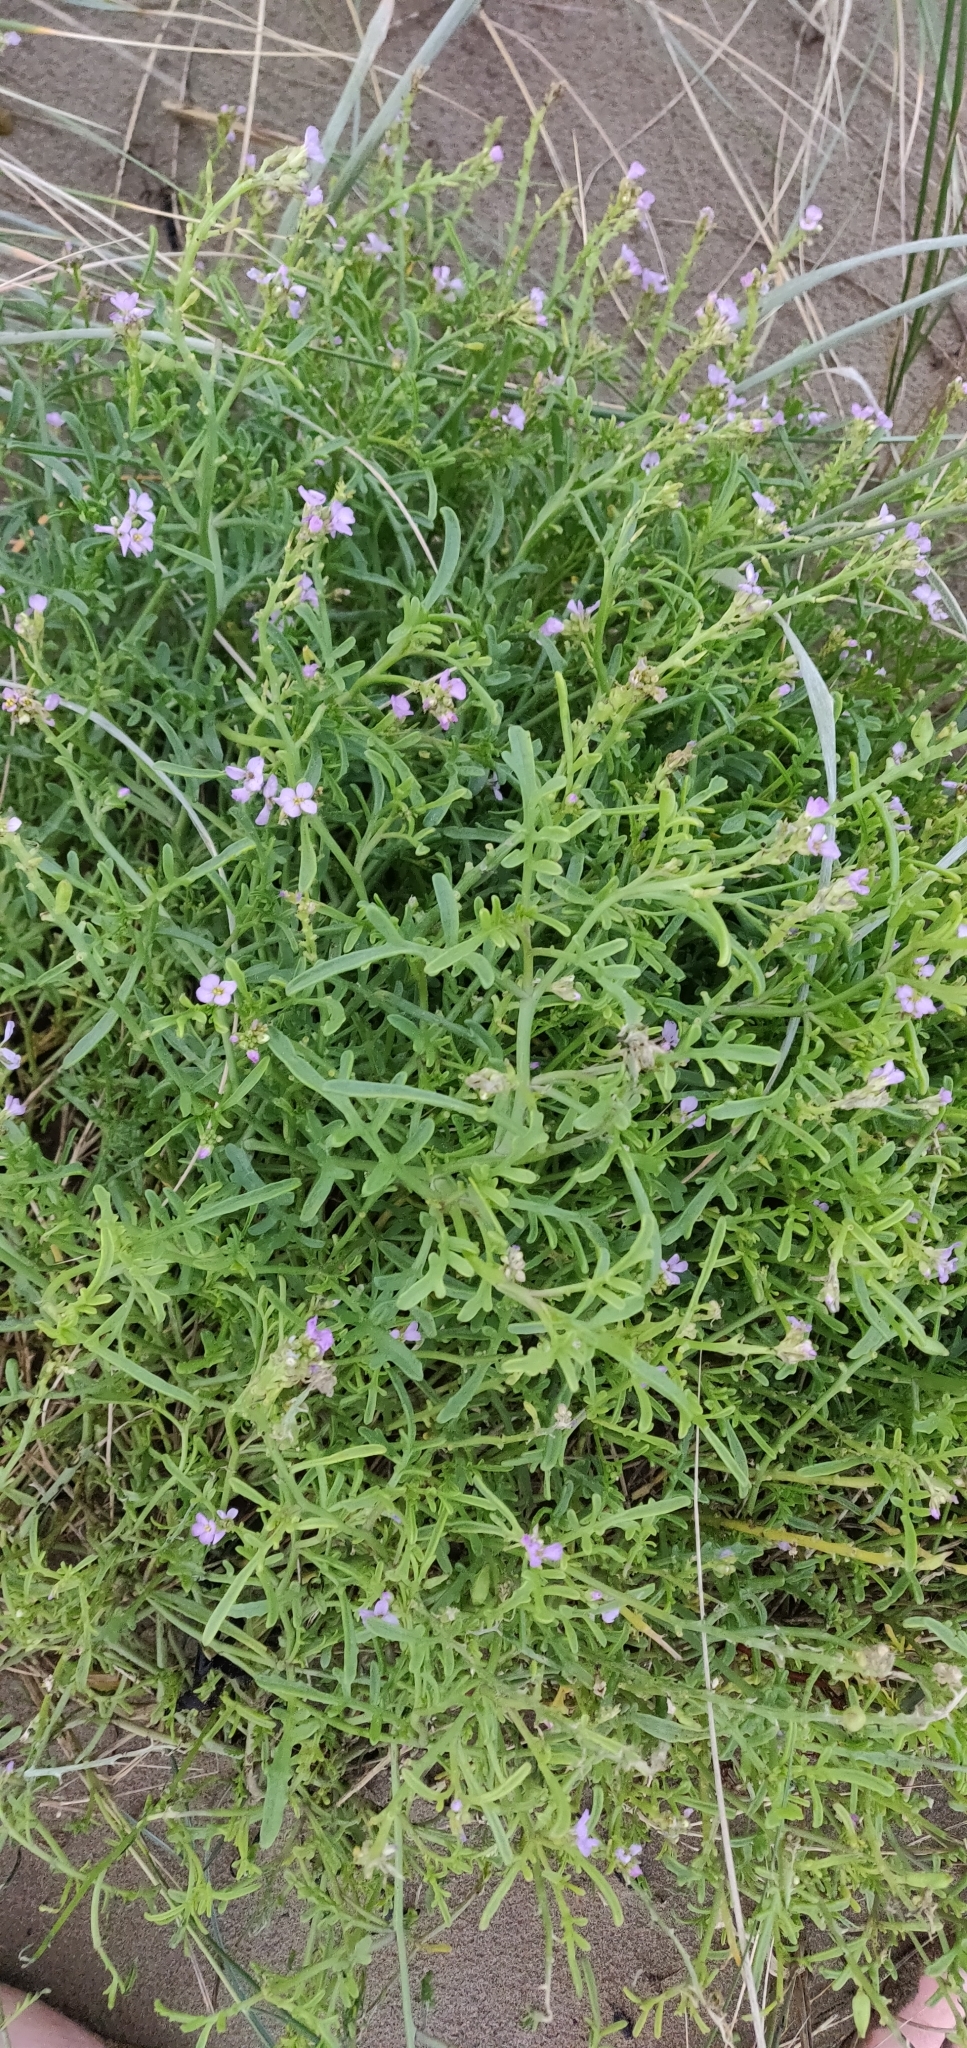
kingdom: Plantae
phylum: Tracheophyta
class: Magnoliopsida
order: Brassicales
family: Brassicaceae
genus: Cakile
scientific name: Cakile maritima
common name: Sea rocket
